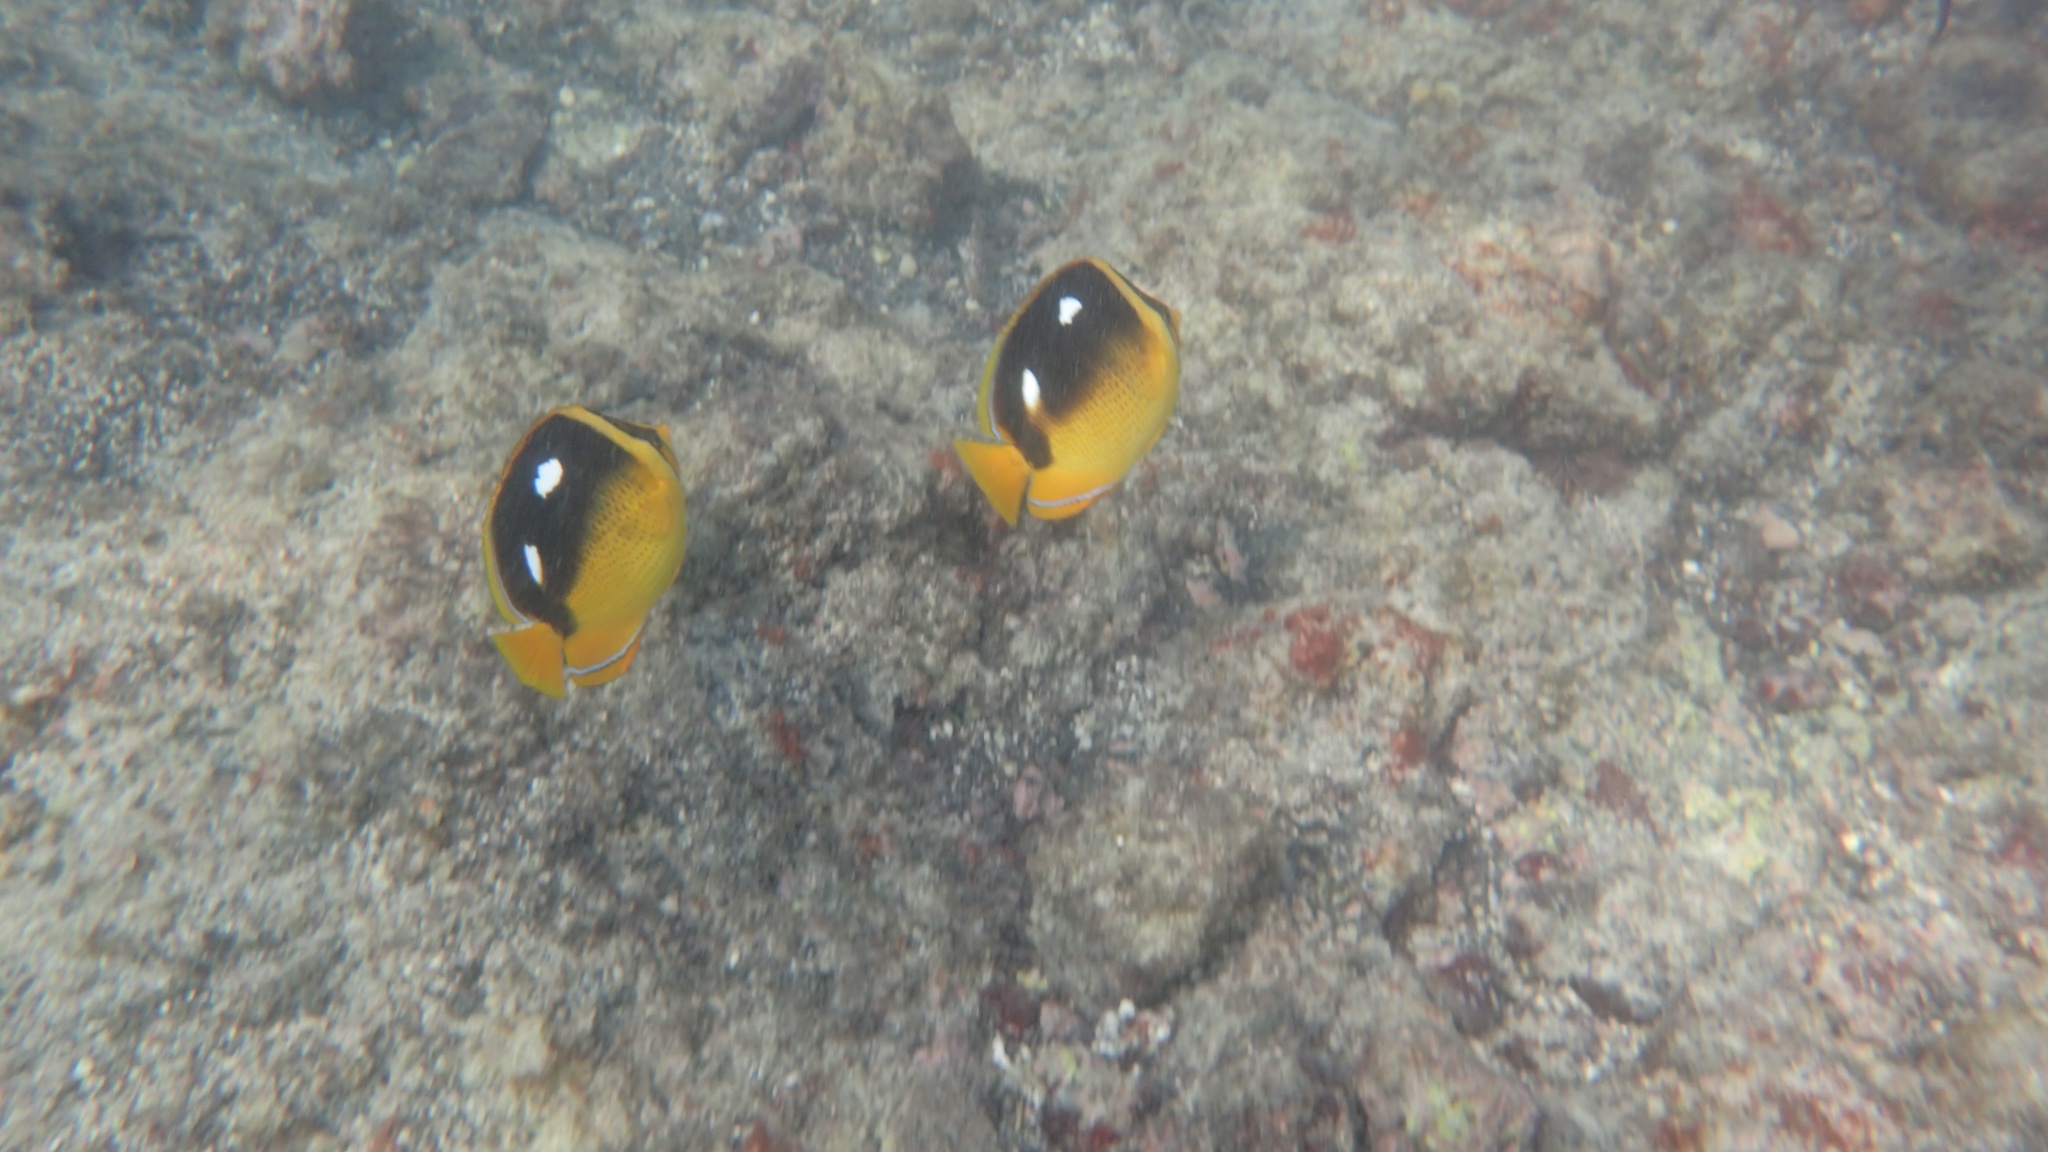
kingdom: Animalia
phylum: Chordata
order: Perciformes
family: Chaetodontidae
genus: Chaetodon
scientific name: Chaetodon quadrimaculatus
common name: Fourspot butterflyfish
